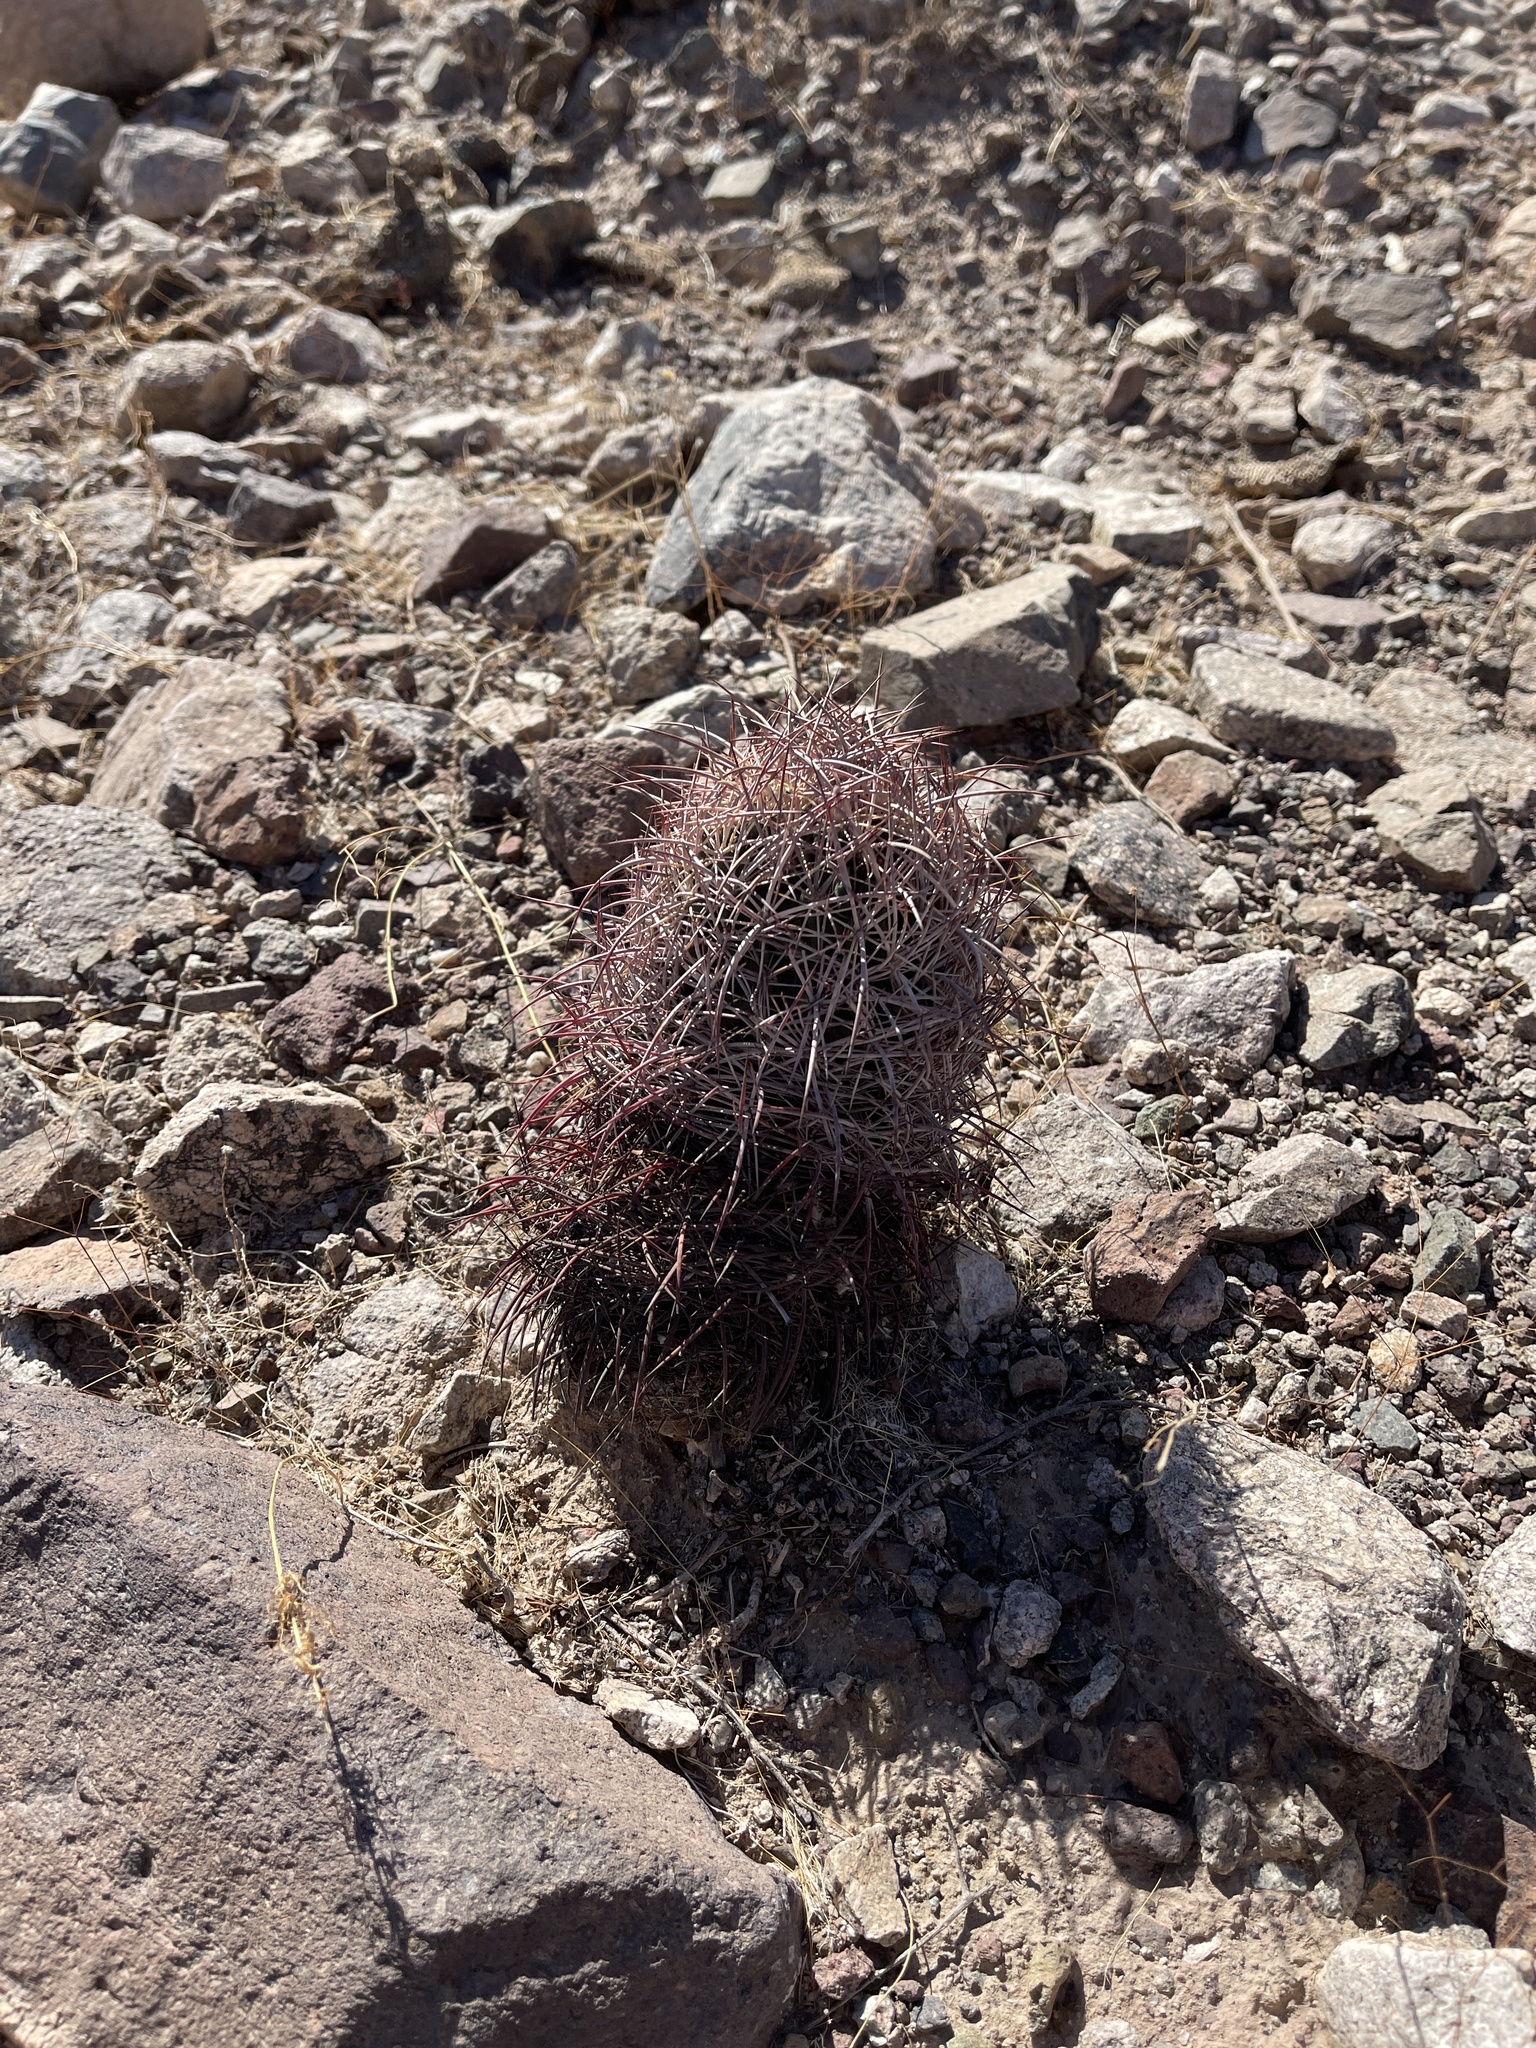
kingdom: Plantae
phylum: Tracheophyta
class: Magnoliopsida
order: Caryophyllales
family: Cactaceae
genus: Sclerocactus
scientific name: Sclerocactus johnsonii
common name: Eight-spine fishhook cactus
